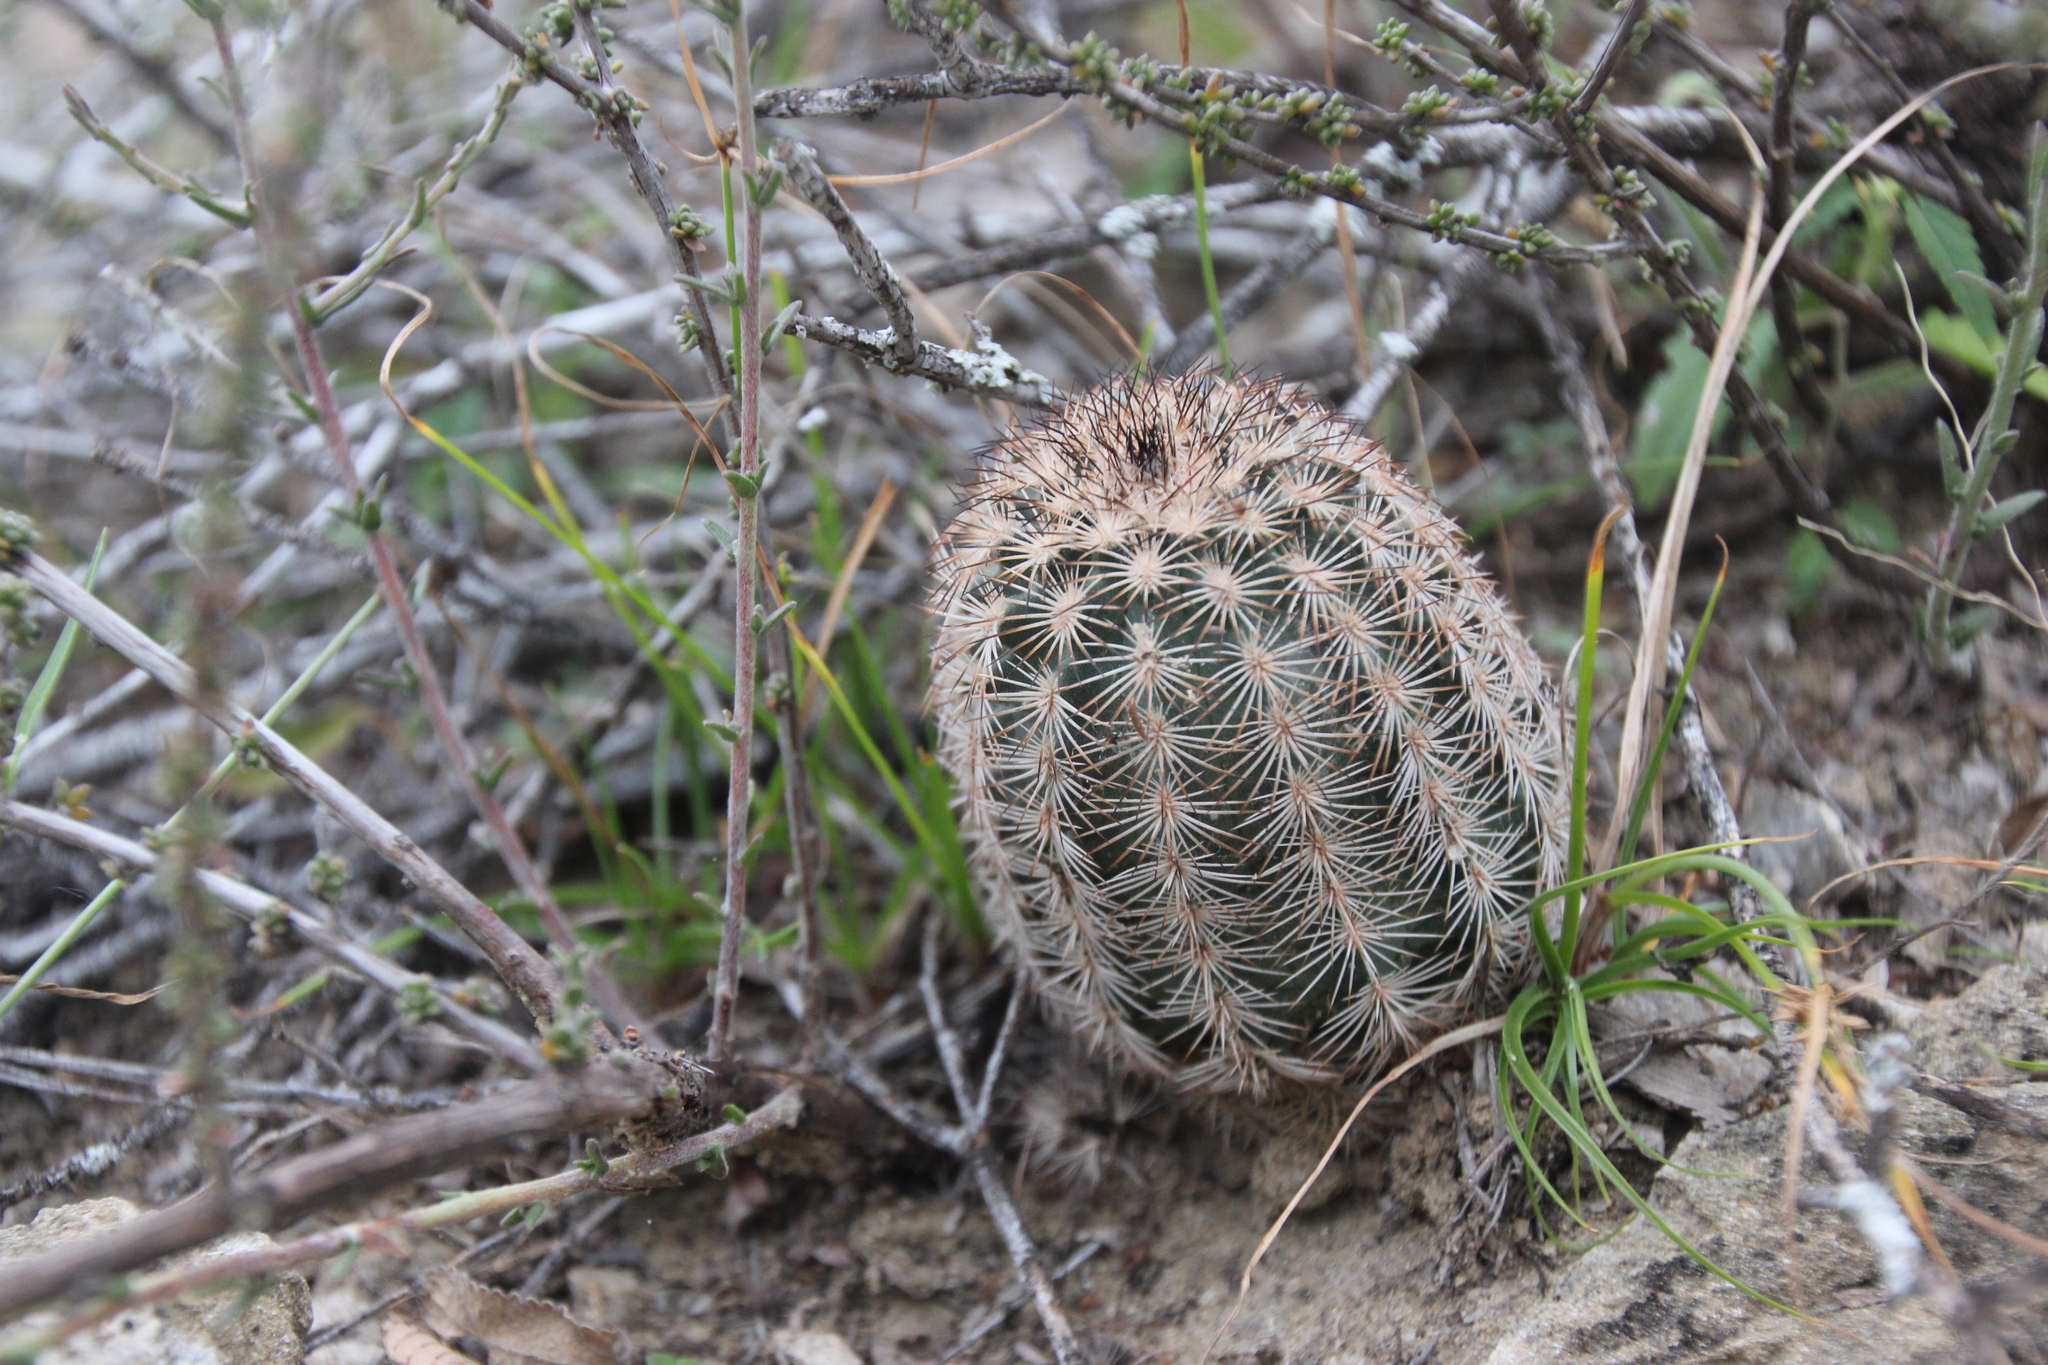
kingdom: Plantae
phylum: Tracheophyta
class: Magnoliopsida
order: Caryophyllales
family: Cactaceae
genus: Echinocereus
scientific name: Echinocereus reichenbachii
